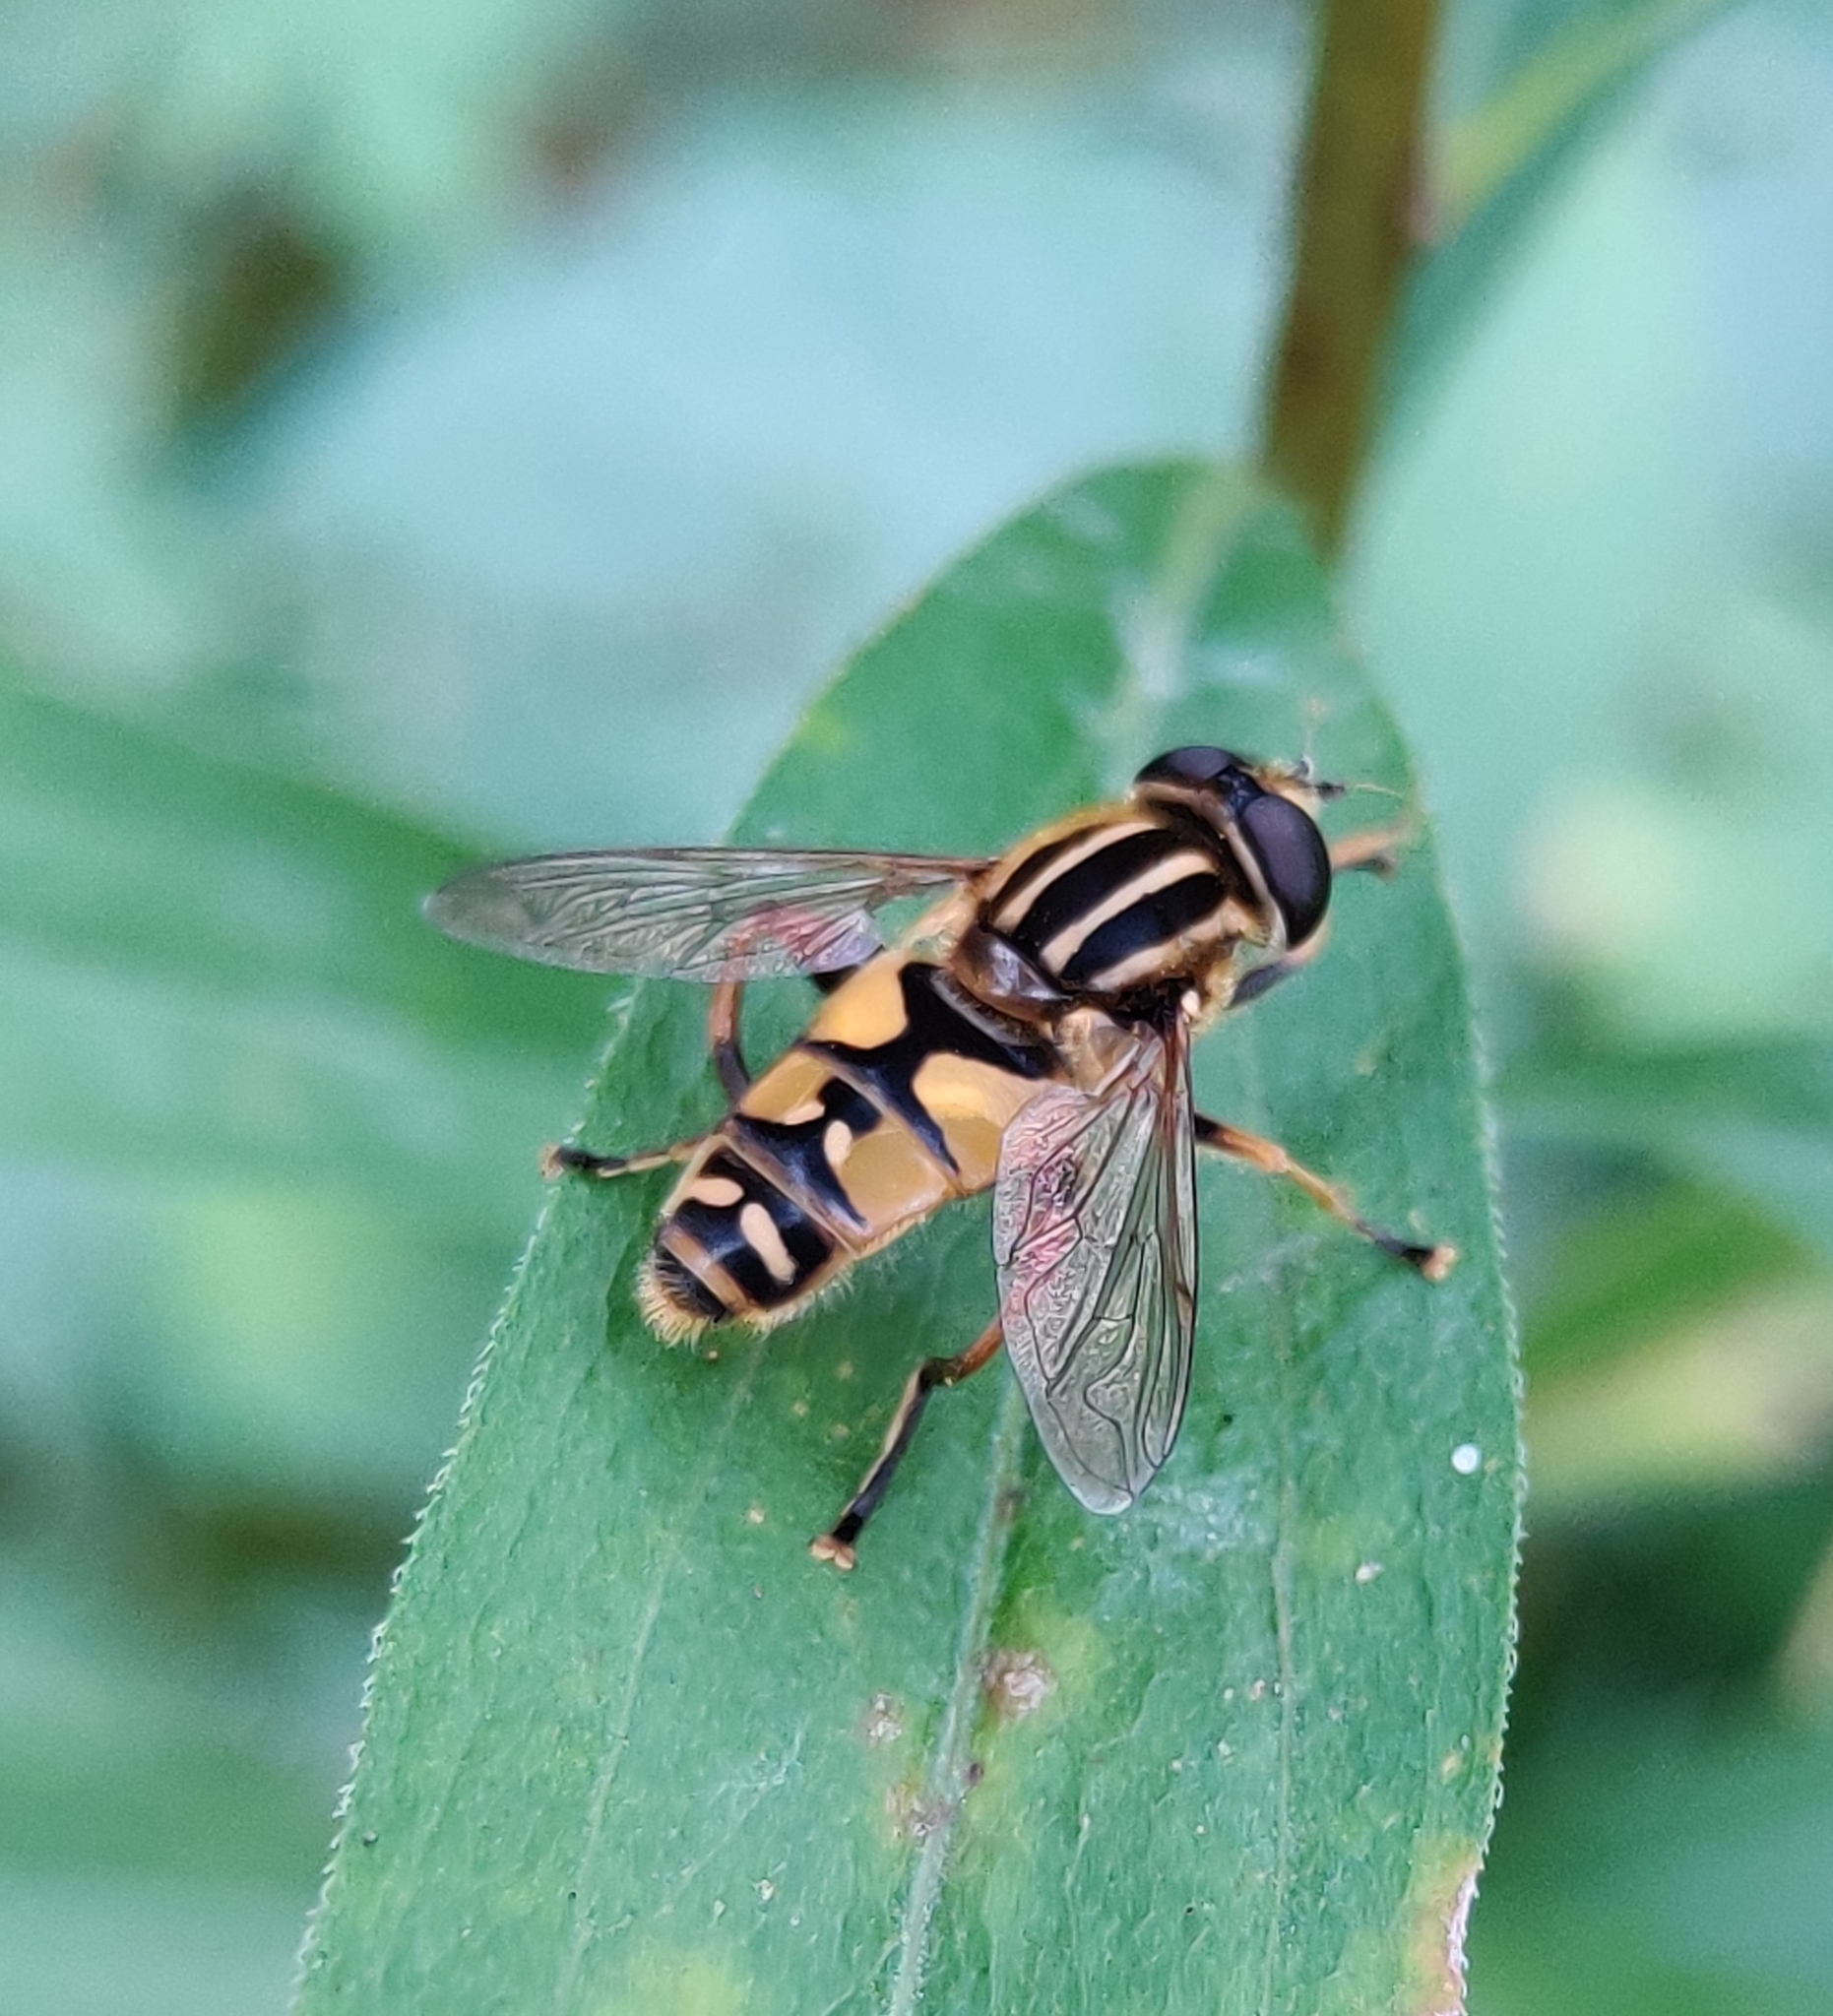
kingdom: Animalia
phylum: Arthropoda
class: Insecta
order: Diptera
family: Syrphidae
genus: Helophilus
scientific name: Helophilus pendulus
